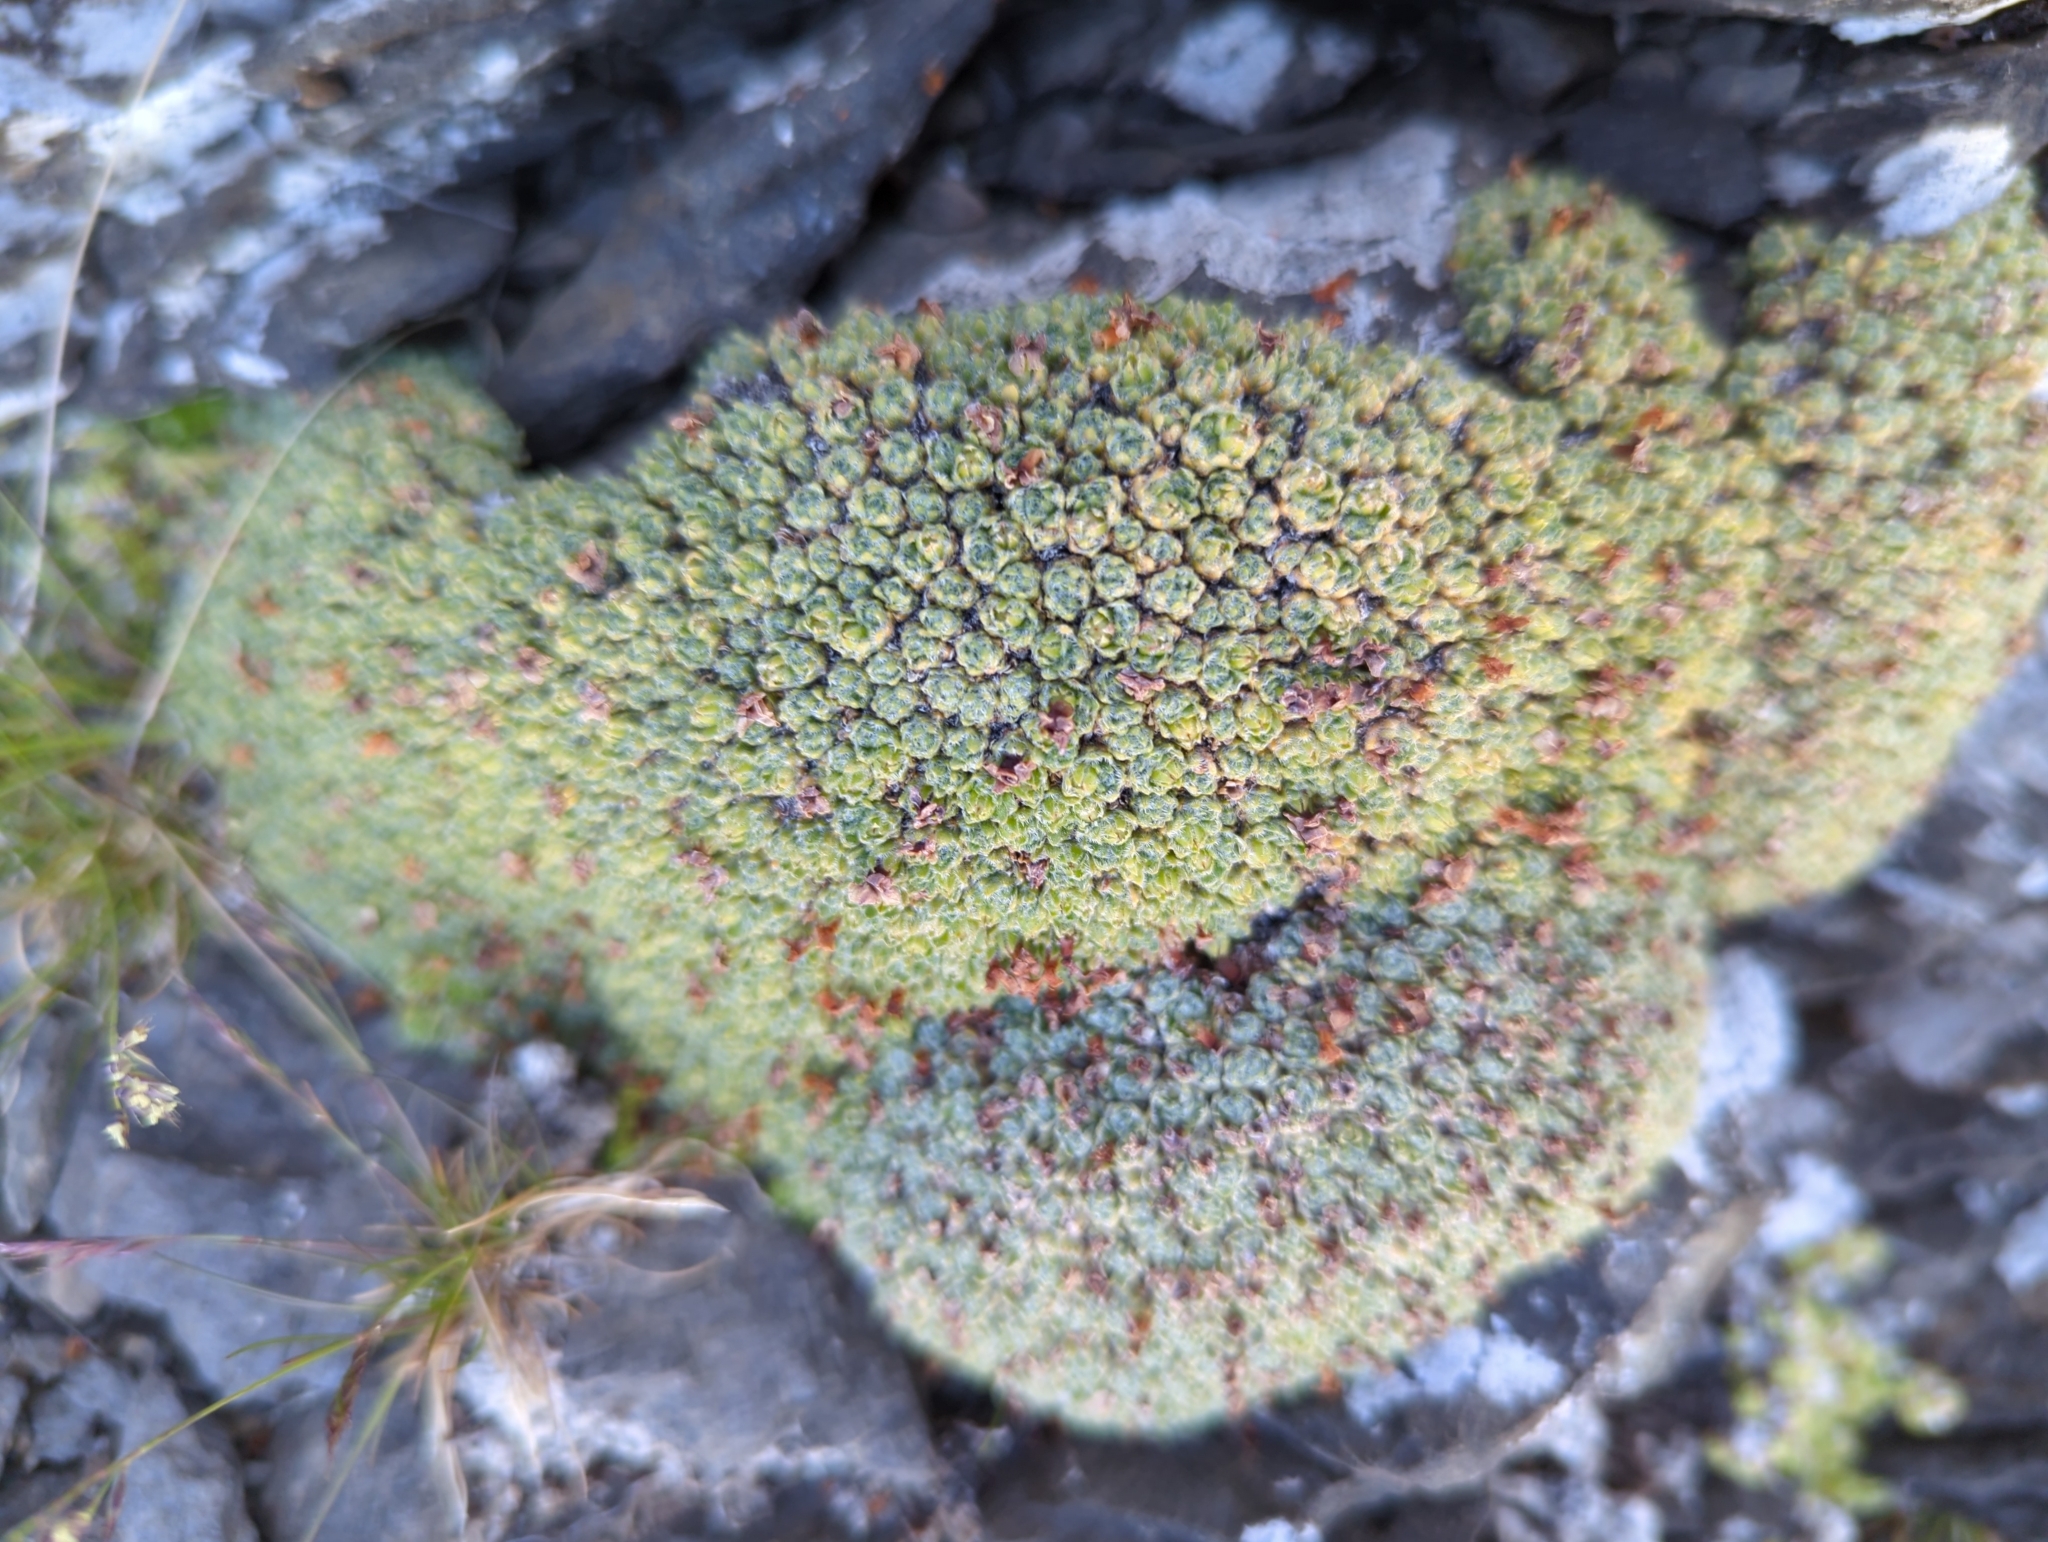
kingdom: Plantae
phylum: Tracheophyta
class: Magnoliopsida
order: Ericales
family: Primulaceae
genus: Androsace
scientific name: Androsace helvetica
